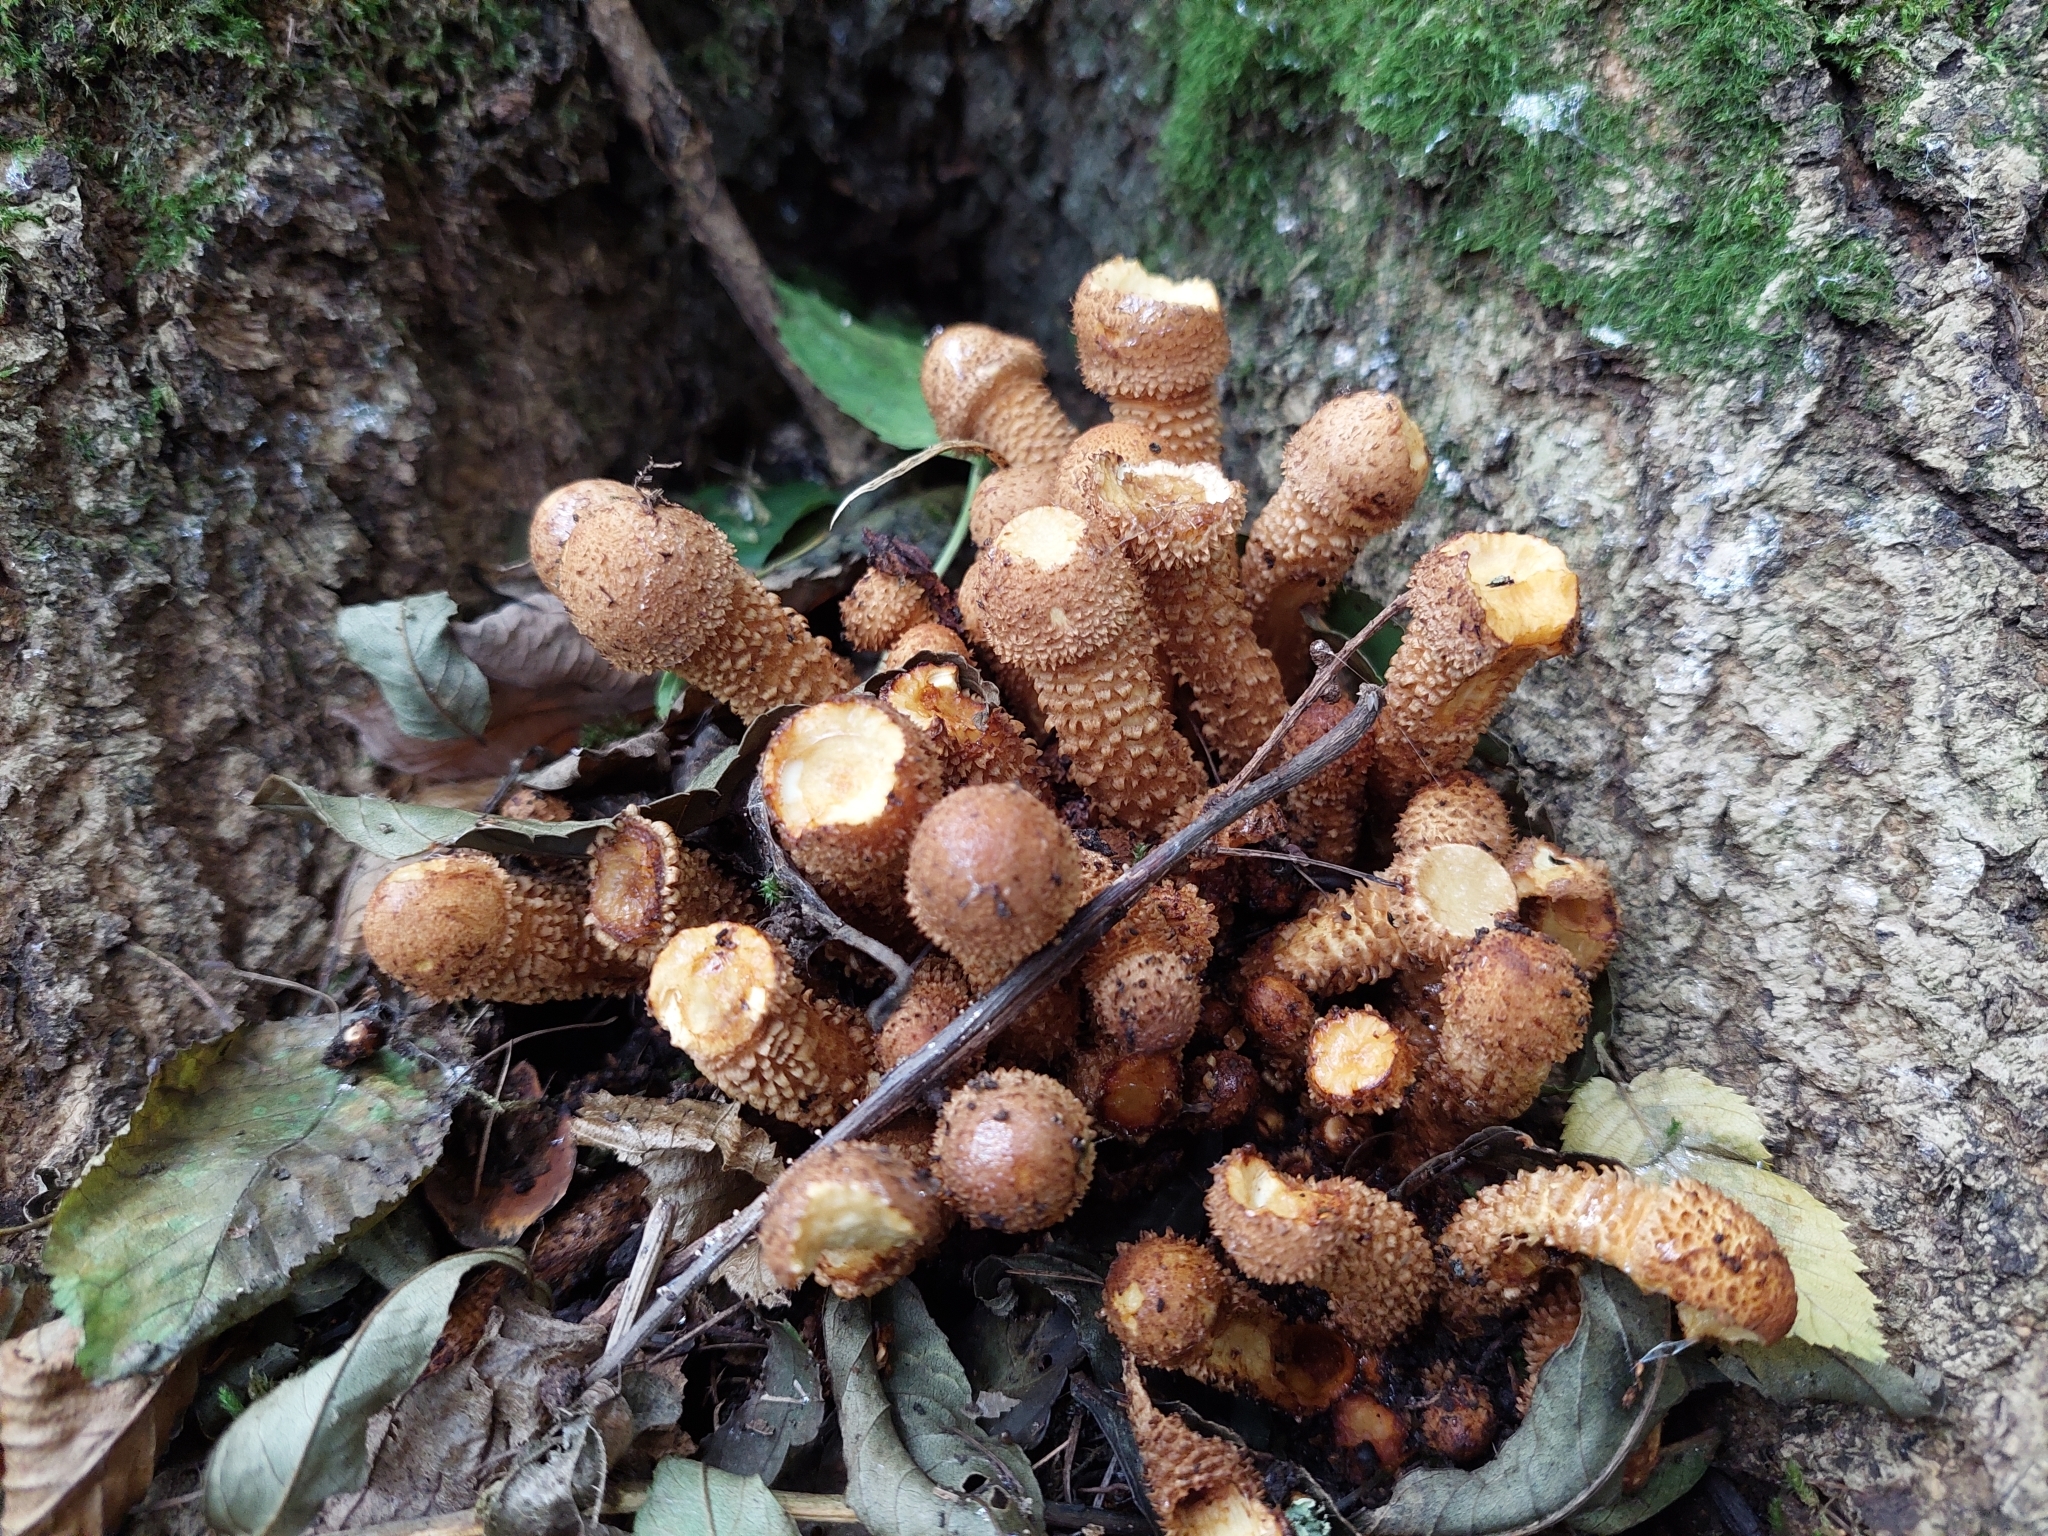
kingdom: Fungi
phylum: Basidiomycota
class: Agaricomycetes
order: Agaricales
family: Strophariaceae
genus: Pholiota
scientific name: Pholiota squarrosa
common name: Shaggy pholiota
